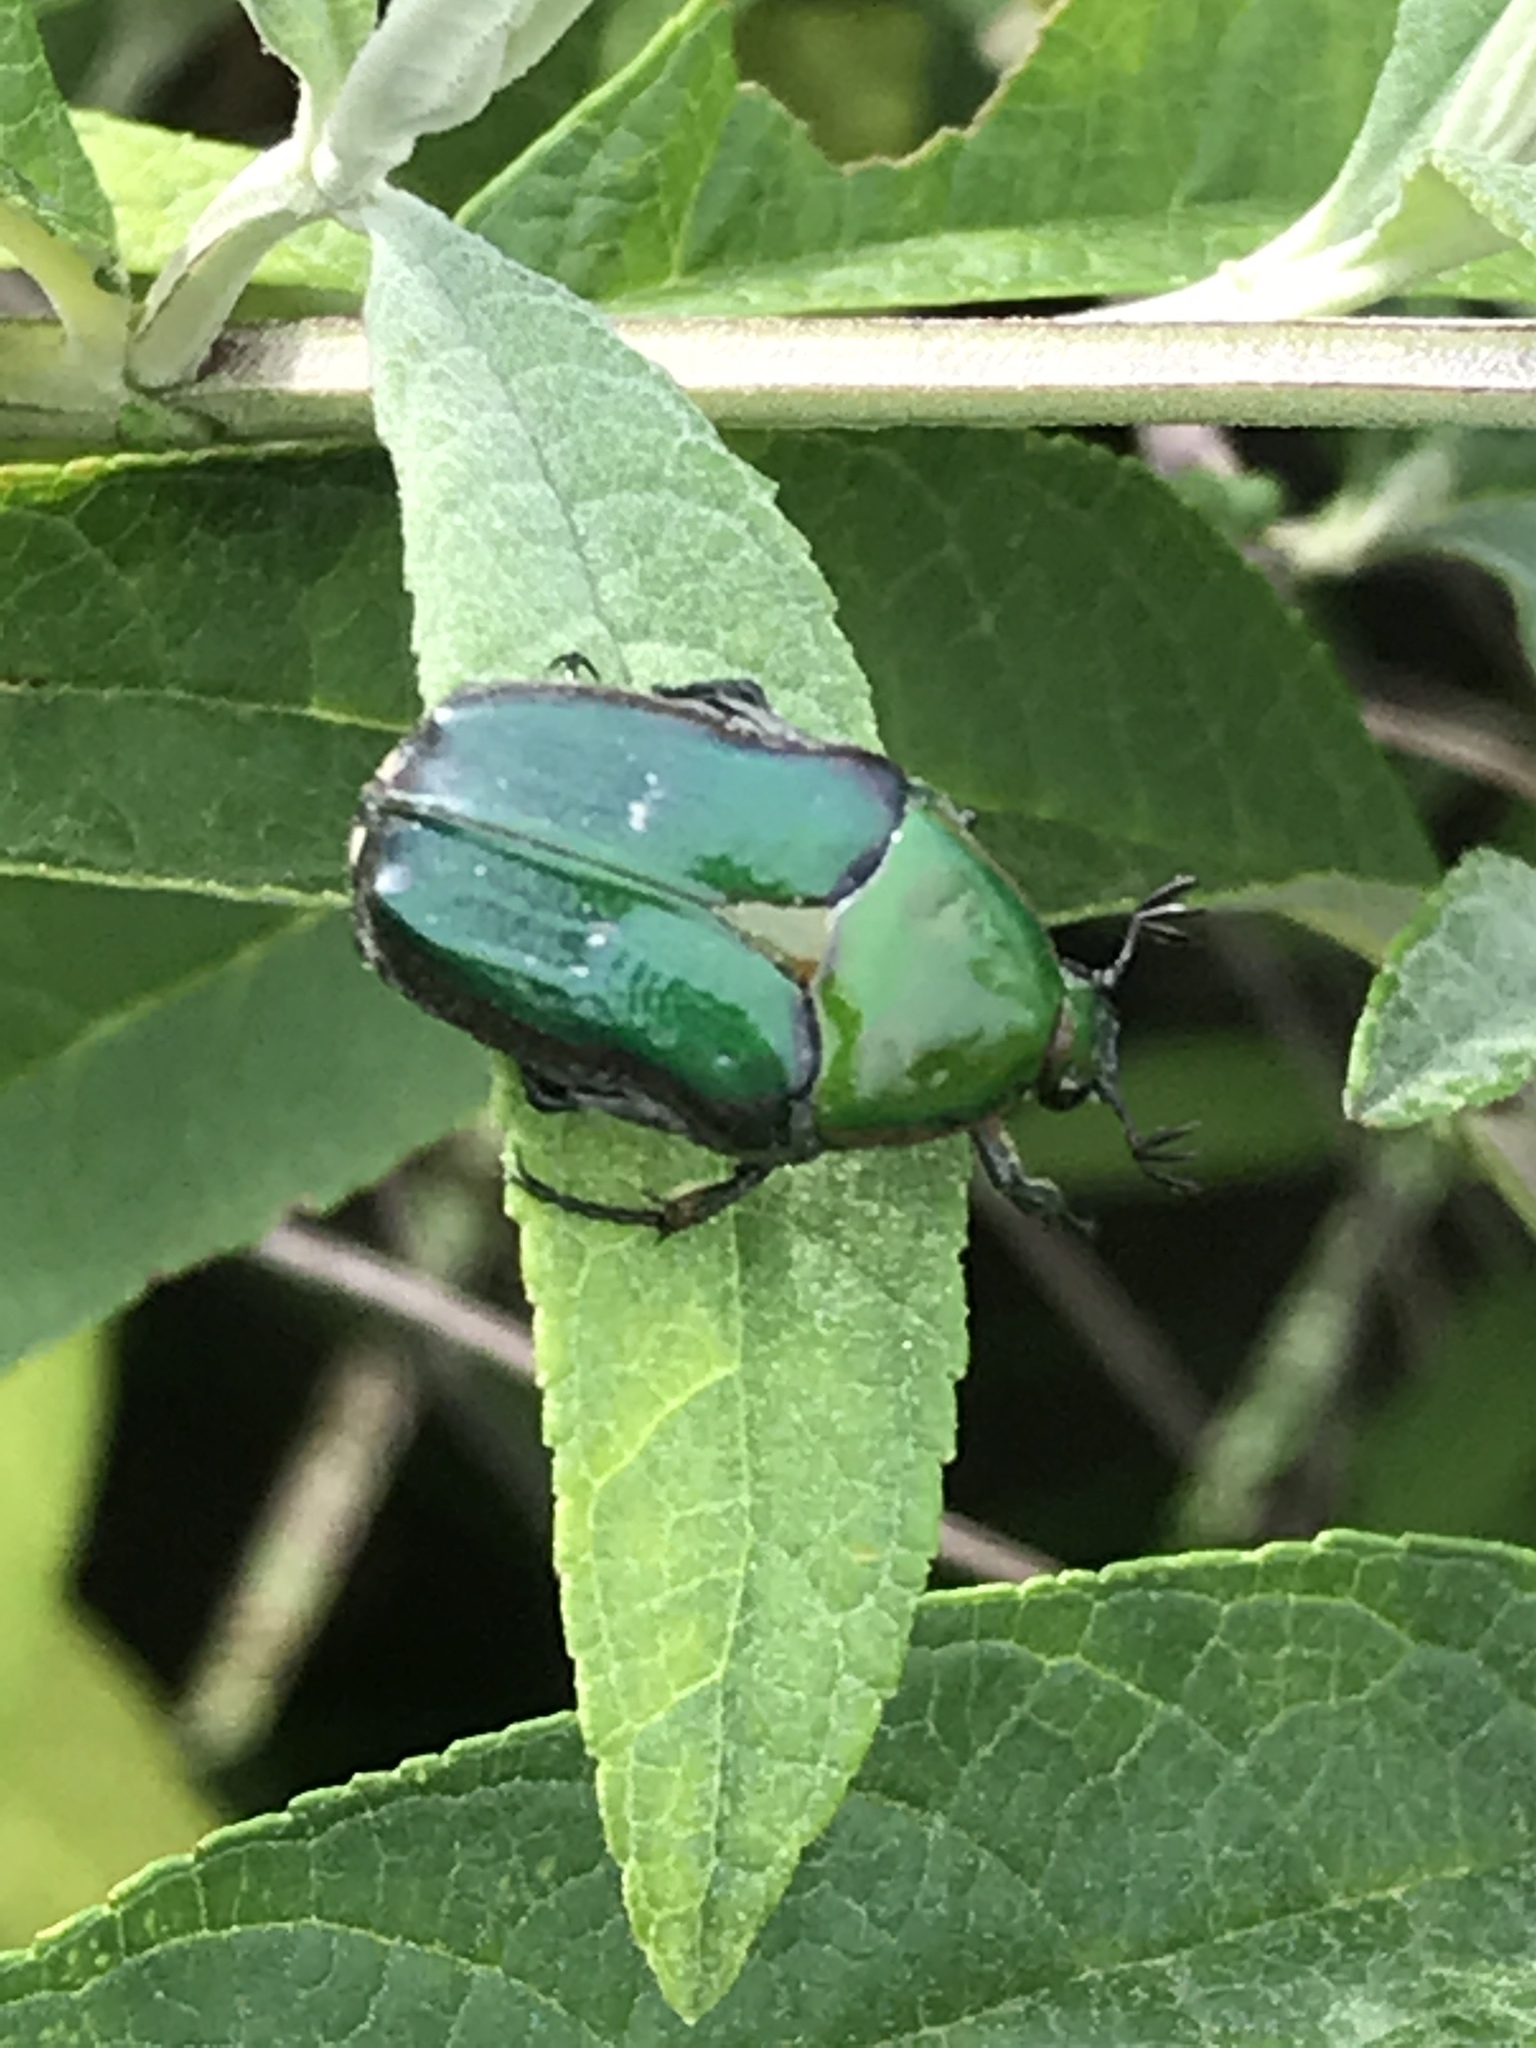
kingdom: Animalia
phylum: Arthropoda
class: Insecta
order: Coleoptera
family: Scarabaeidae
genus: Euphoria
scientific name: Euphoria fulgida
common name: Emerald euphoria
